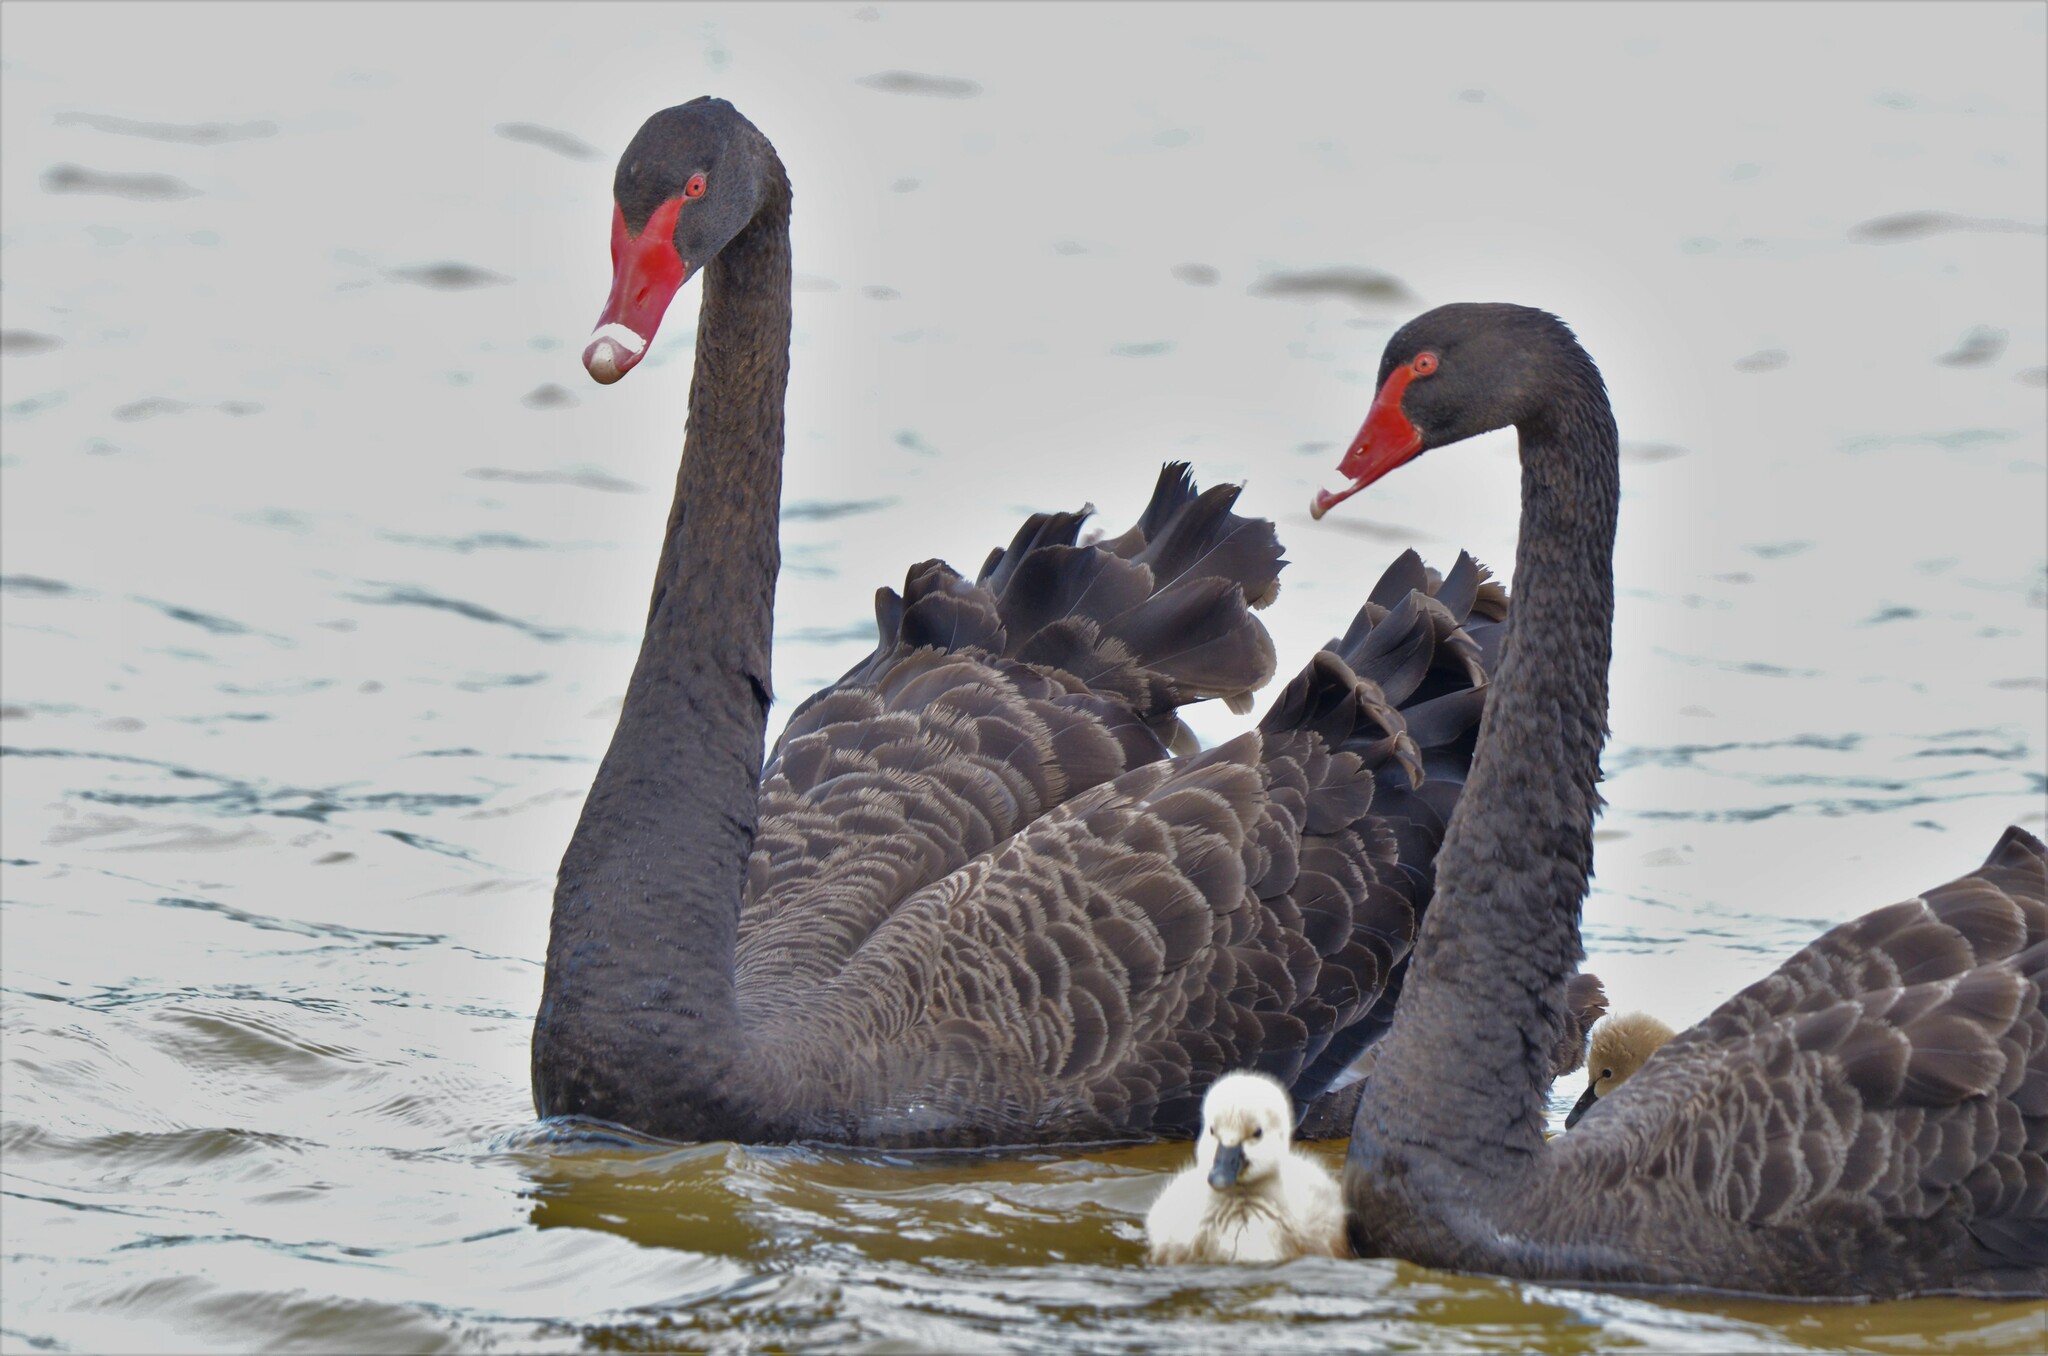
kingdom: Animalia
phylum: Chordata
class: Aves
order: Anseriformes
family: Anatidae
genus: Cygnus
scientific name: Cygnus atratus
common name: Black swan
